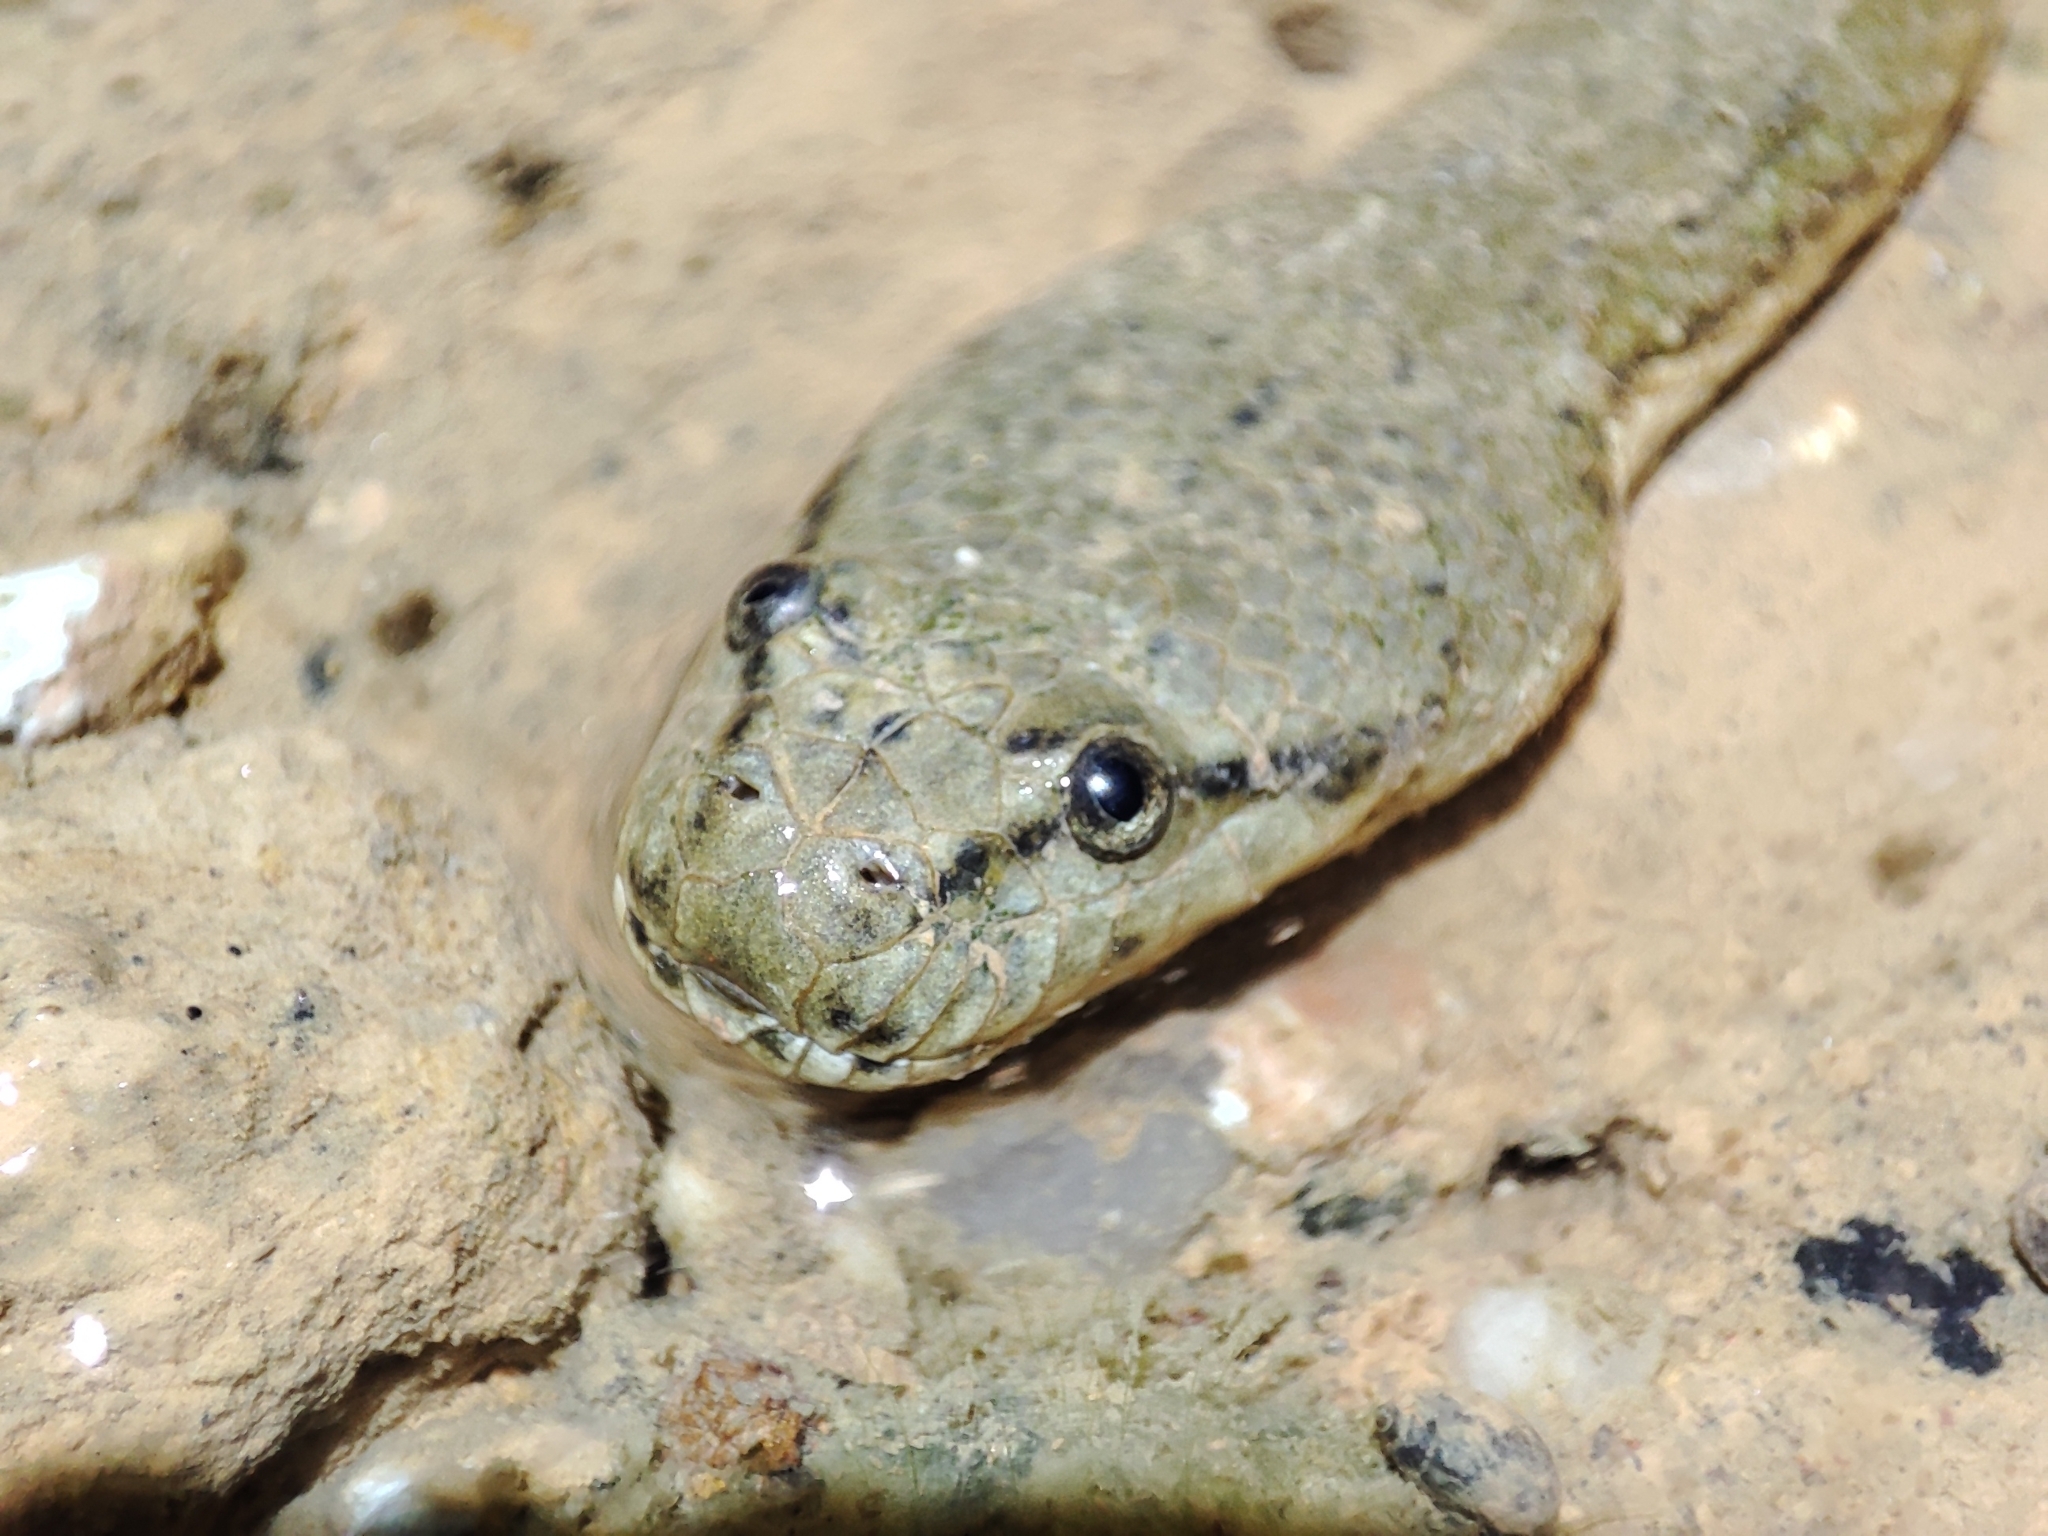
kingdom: Animalia
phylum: Chordata
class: Squamata
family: Homalopsidae
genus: Cerberus
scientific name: Cerberus schneiderii
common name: Southeast asian bockadam
